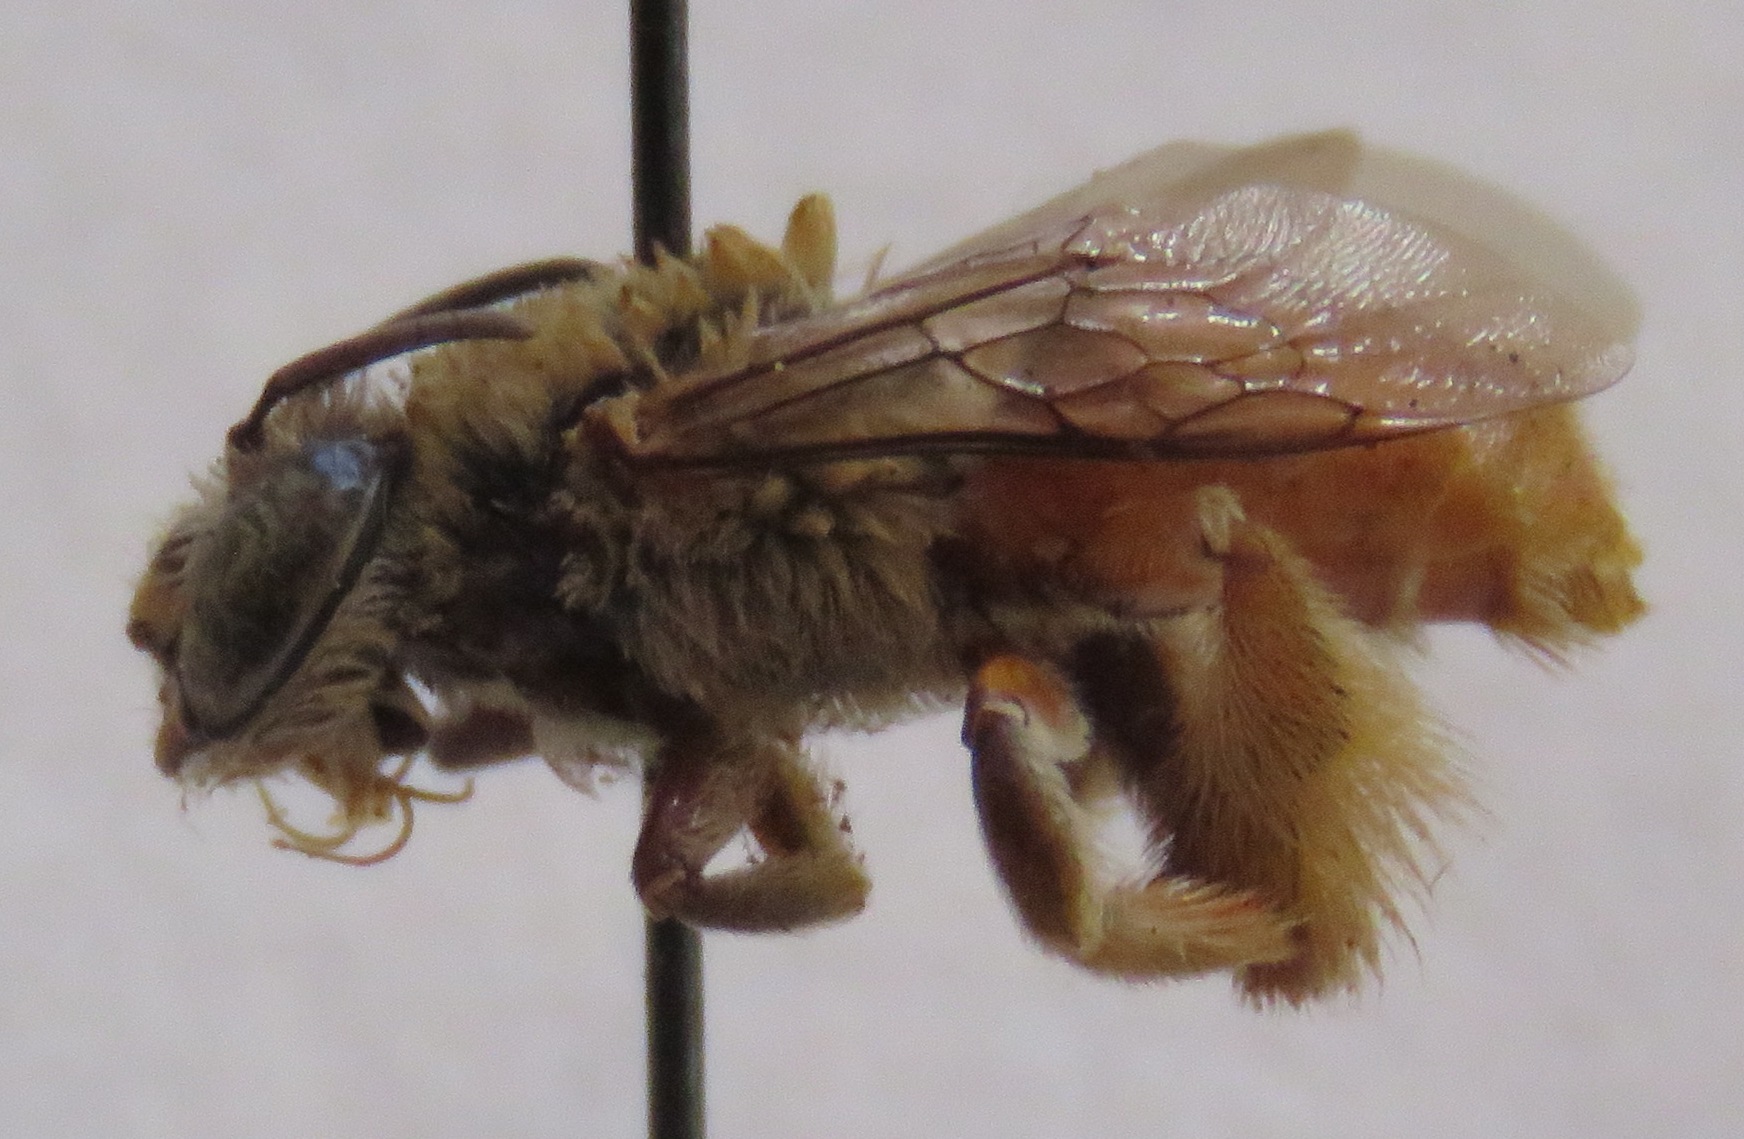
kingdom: Animalia
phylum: Arthropoda
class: Insecta
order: Hymenoptera
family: Apidae
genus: Centris
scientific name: Centris analis
